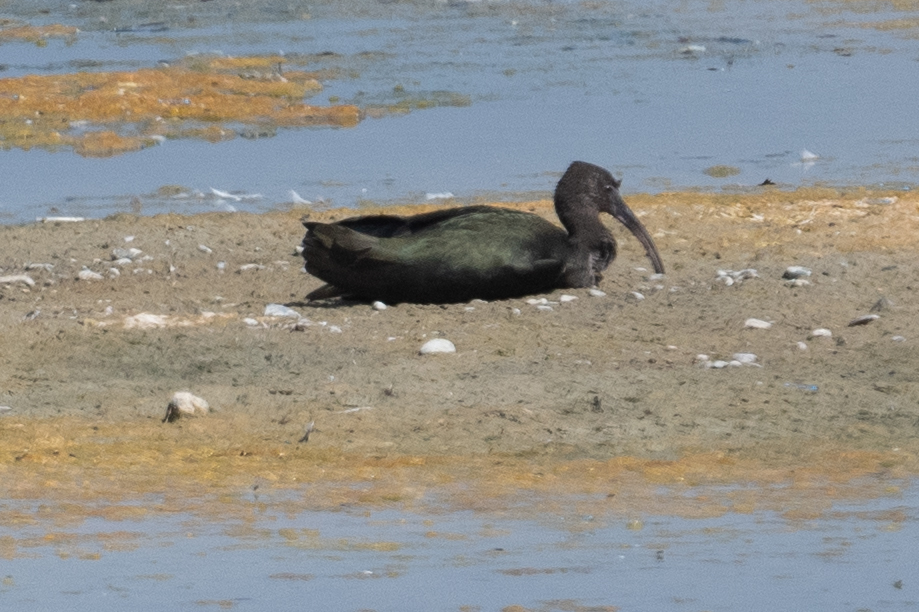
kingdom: Animalia
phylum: Chordata
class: Aves
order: Pelecaniformes
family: Threskiornithidae
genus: Plegadis
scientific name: Plegadis chihi
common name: White-faced ibis
